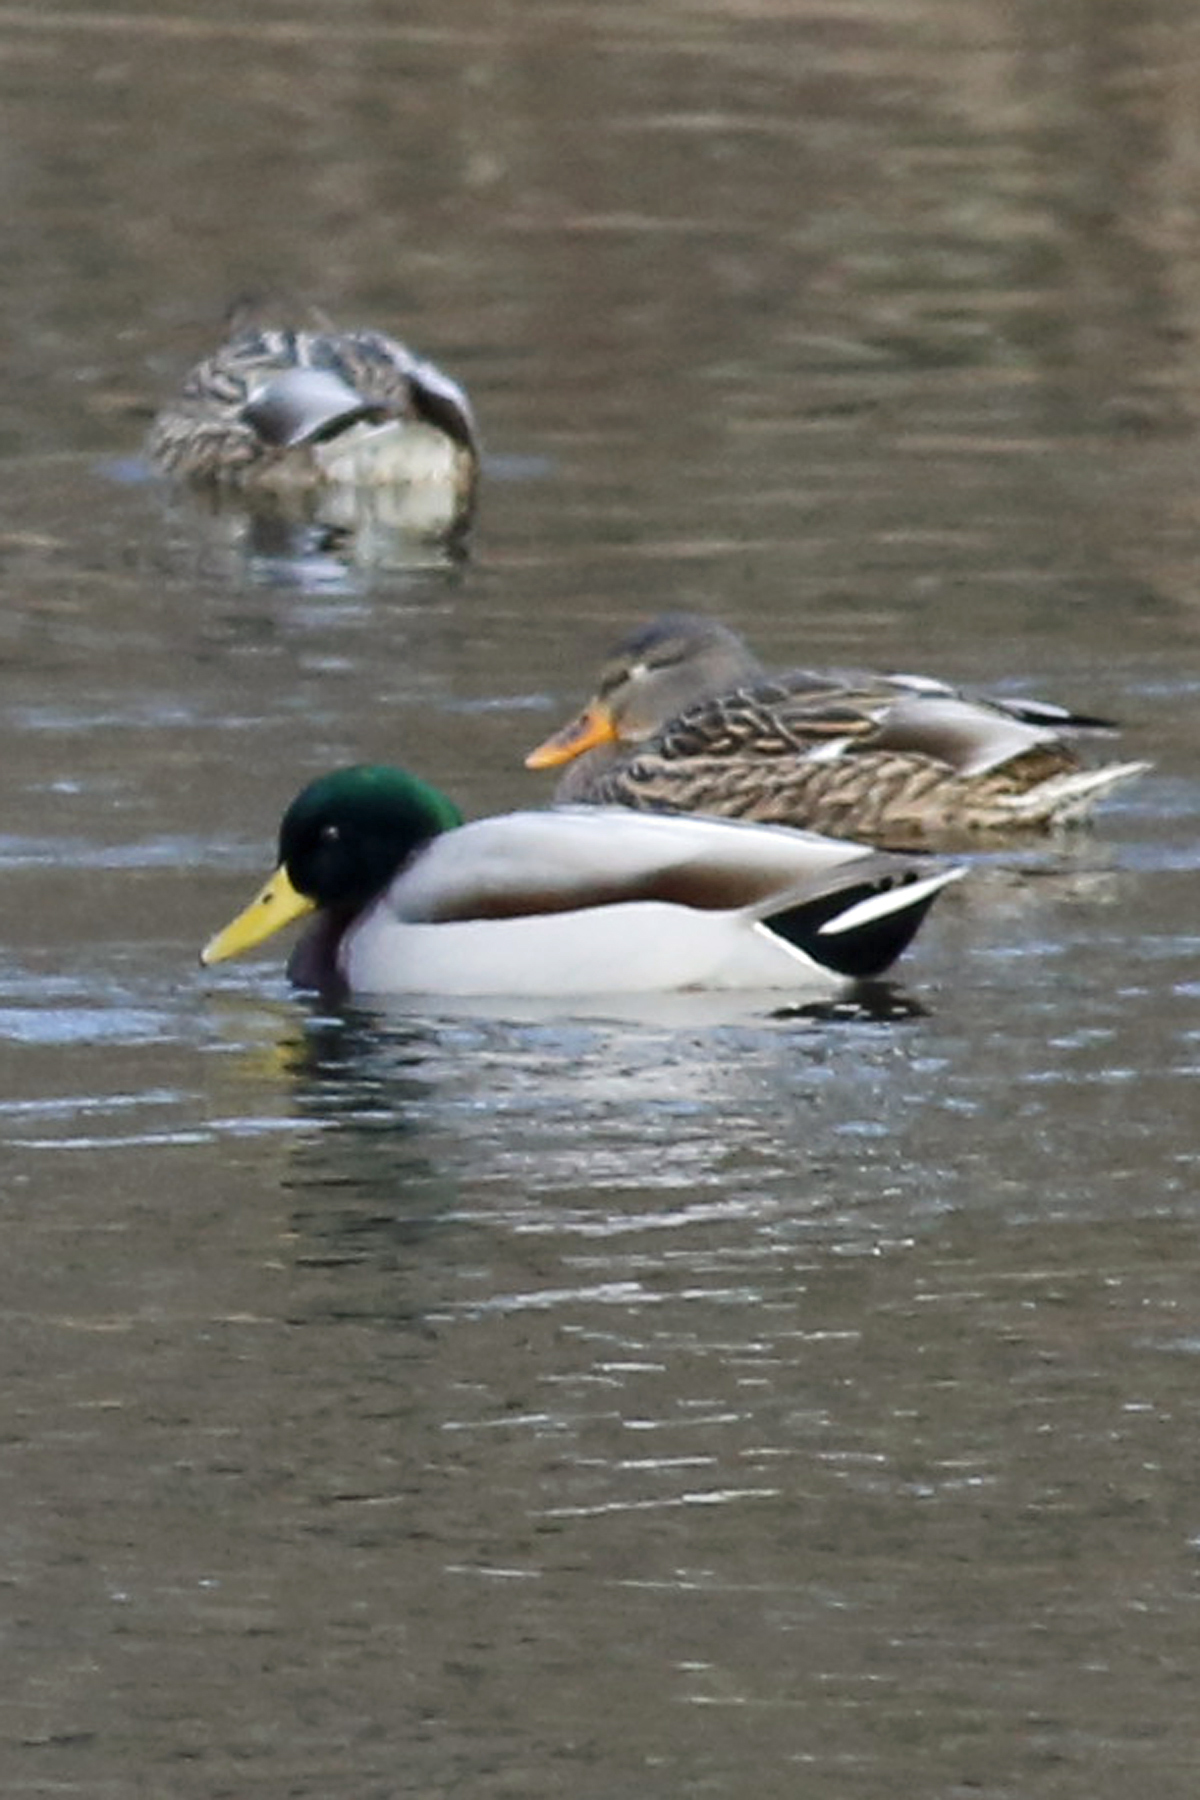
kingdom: Animalia
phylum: Chordata
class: Aves
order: Anseriformes
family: Anatidae
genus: Anas
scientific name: Anas platyrhynchos
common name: Mallard
